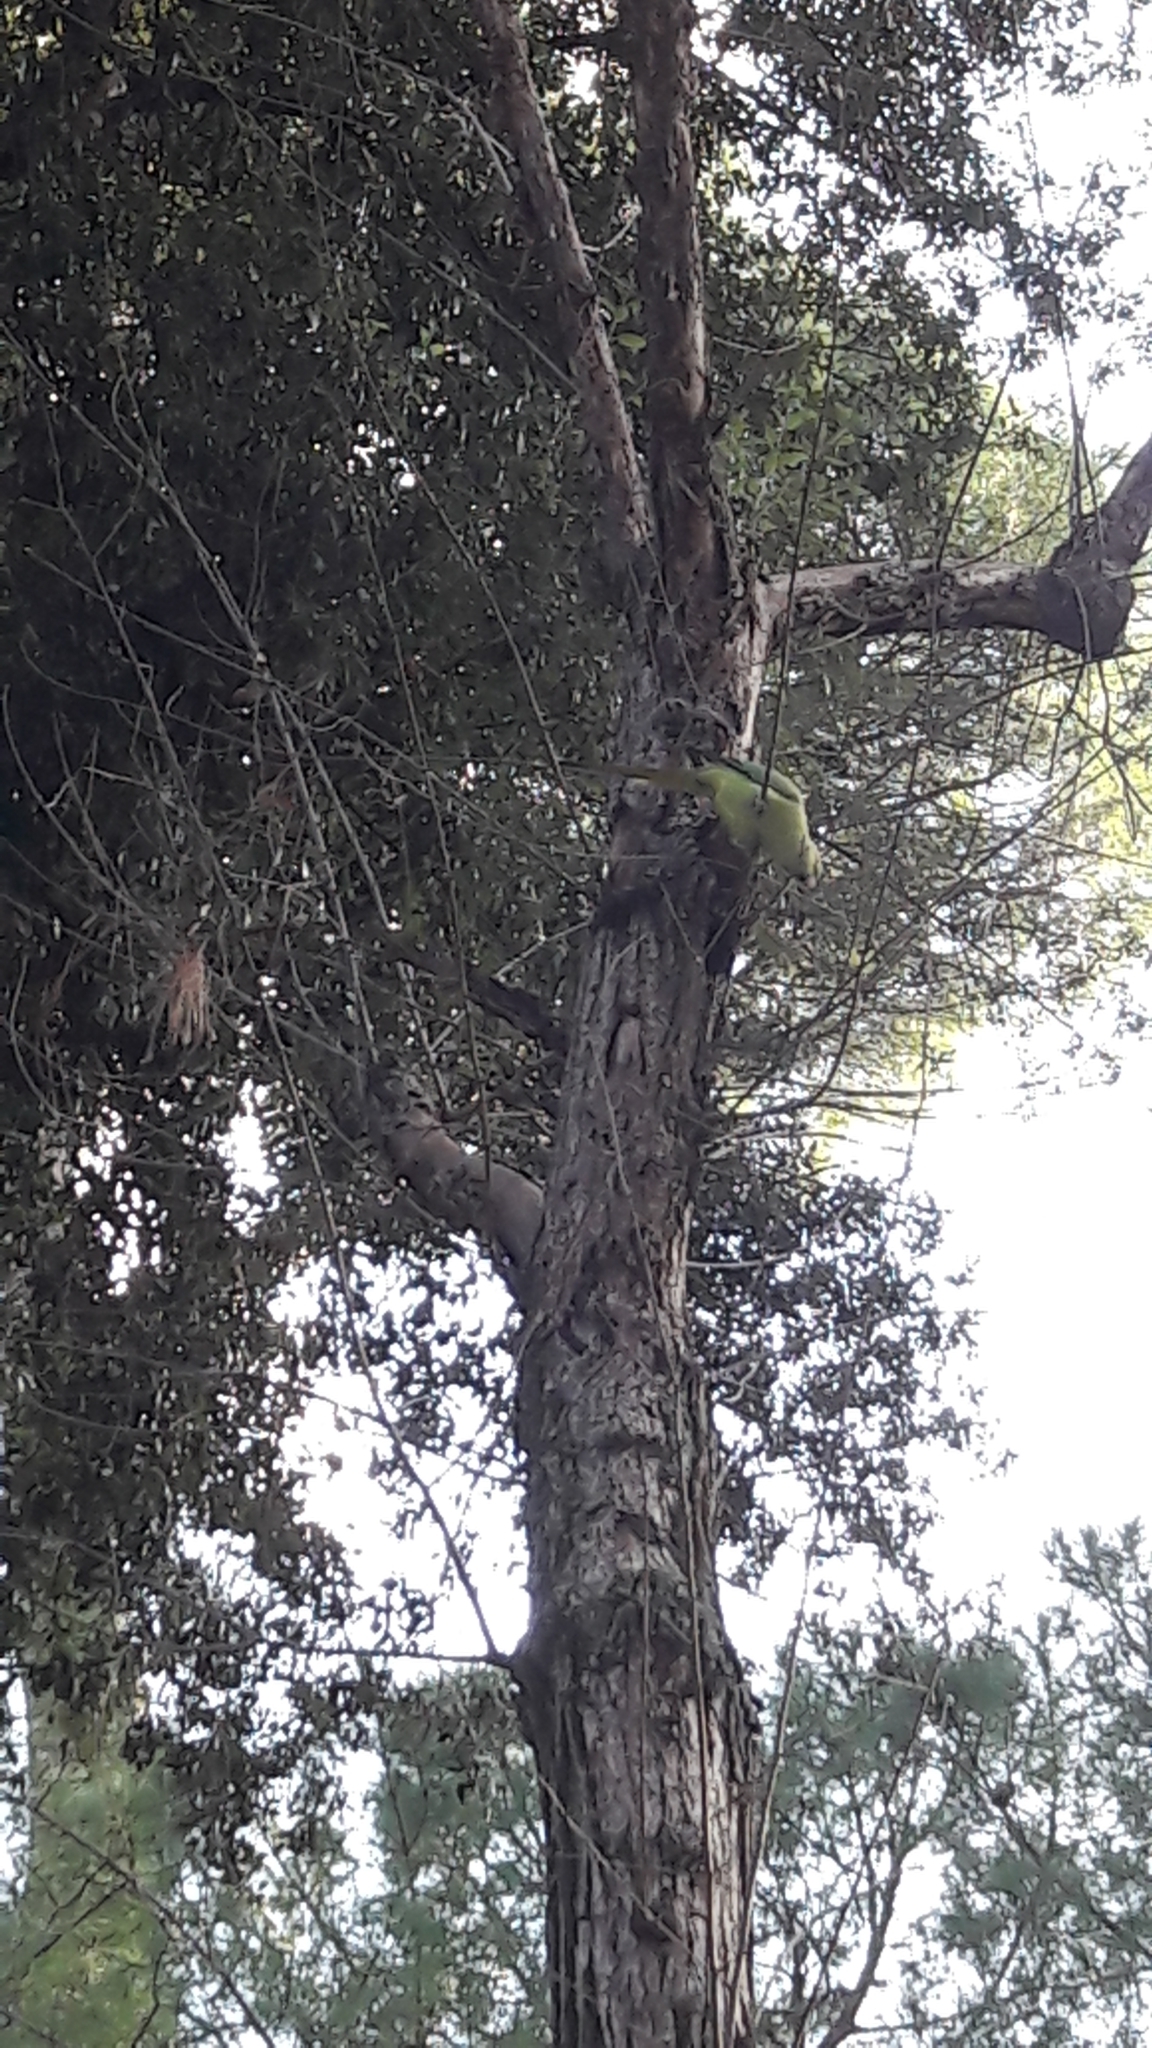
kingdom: Animalia
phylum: Chordata
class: Aves
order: Psittaciformes
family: Psittacidae
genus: Psittacula
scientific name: Psittacula krameri
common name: Rose-ringed parakeet
